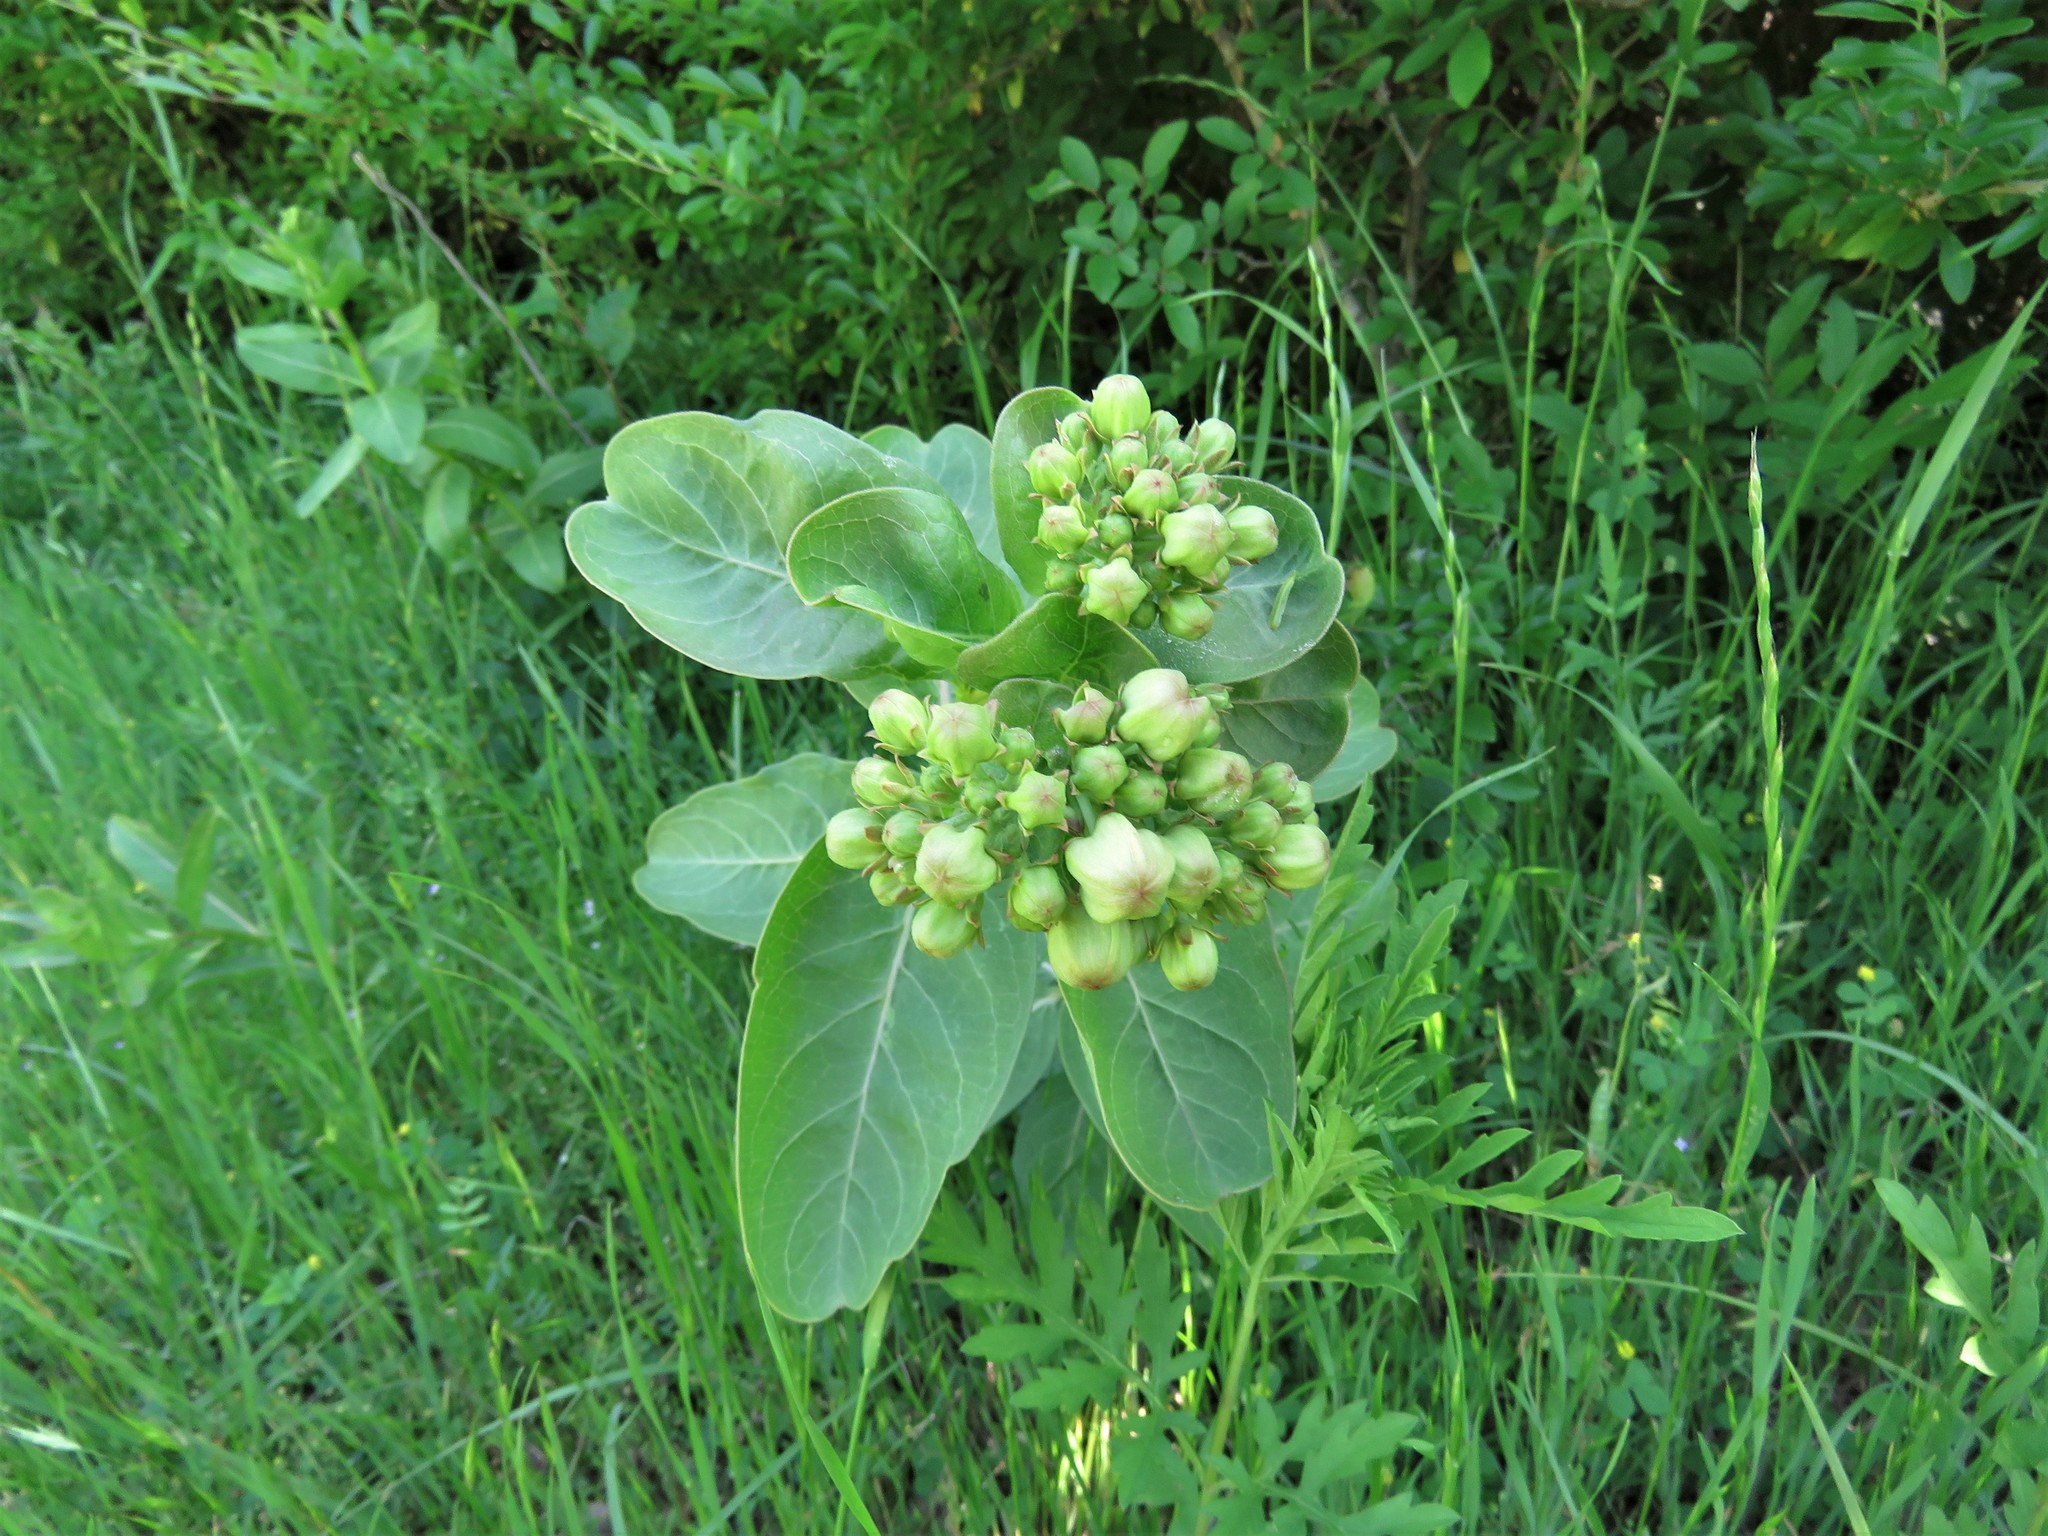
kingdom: Plantae
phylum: Tracheophyta
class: Magnoliopsida
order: Gentianales
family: Apocynaceae
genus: Asclepias
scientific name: Asclepias viridis
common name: Antelope-horns
